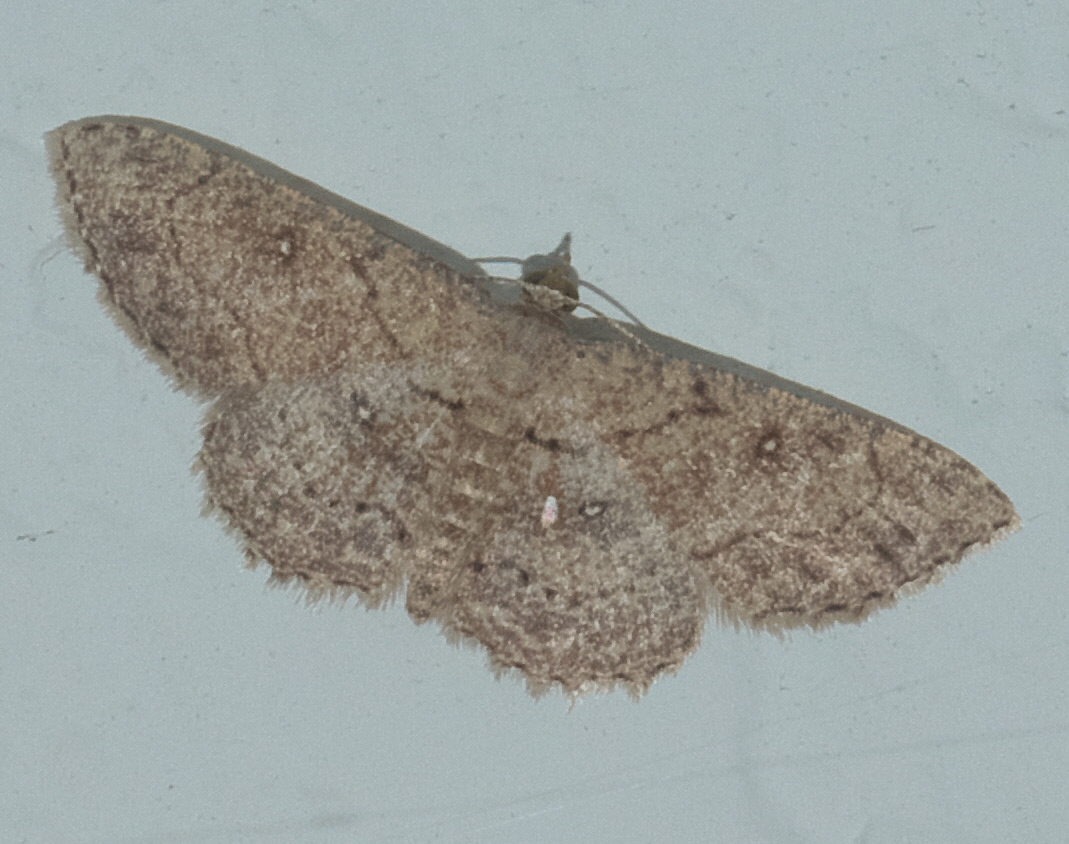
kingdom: Animalia
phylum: Arthropoda
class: Insecta
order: Lepidoptera
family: Geometridae
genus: Cyclophora
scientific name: Cyclophora nanaria
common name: Cankerworm
